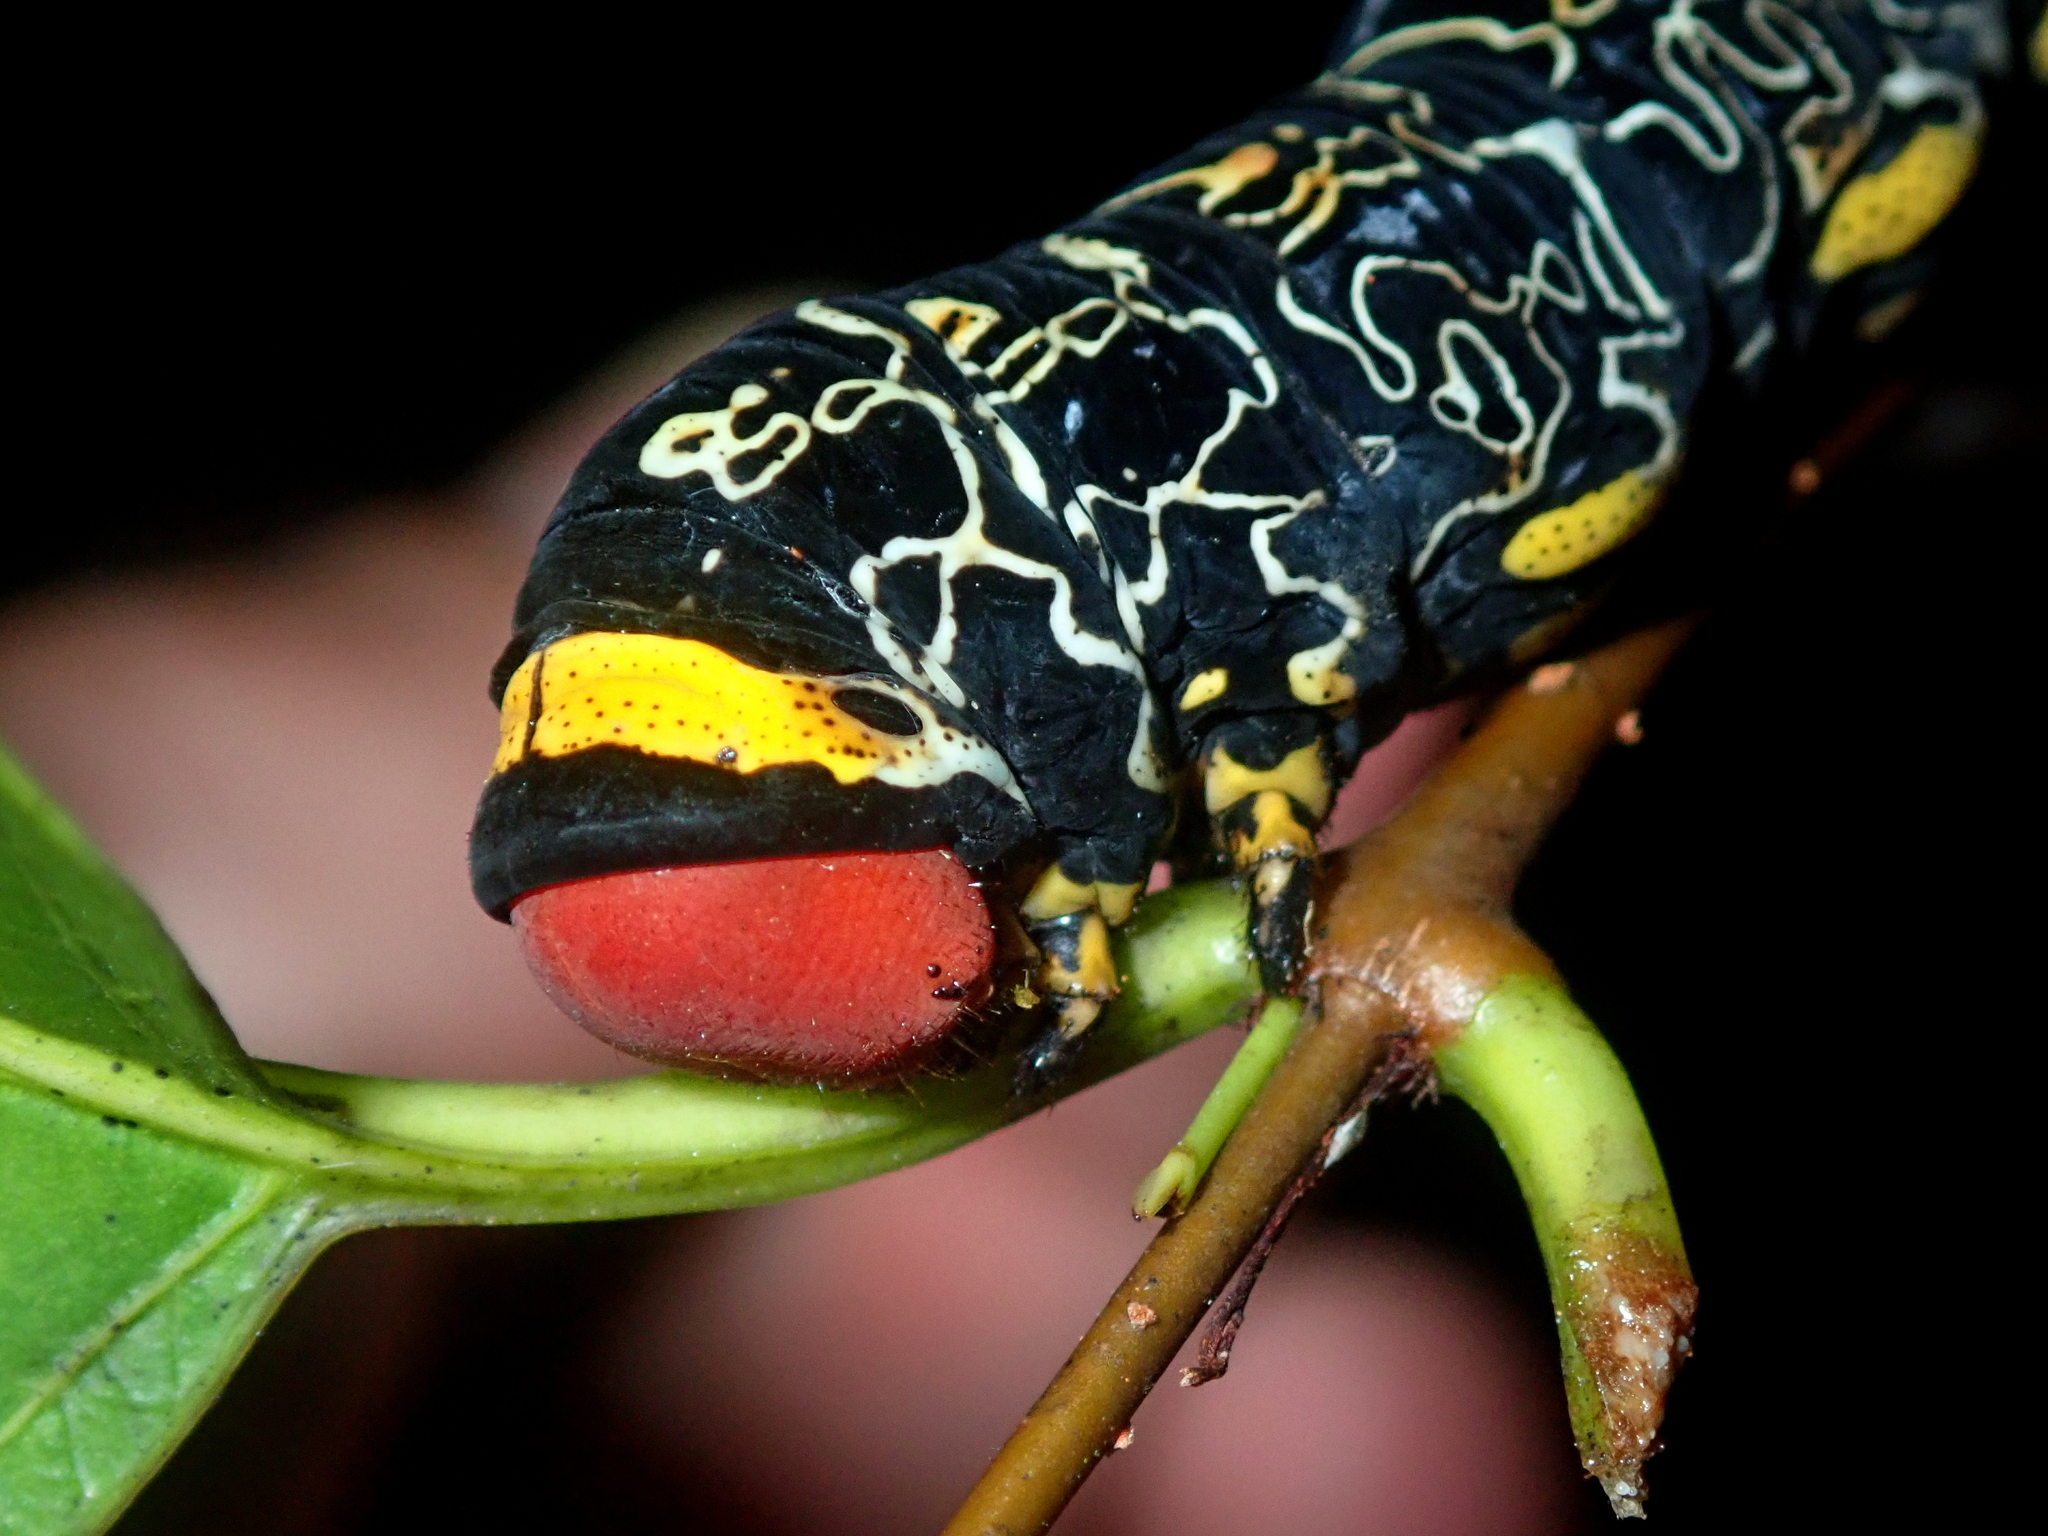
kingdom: Animalia
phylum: Arthropoda
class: Insecta
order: Lepidoptera
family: Sphingidae
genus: Isognathus
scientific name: Isognathus caricae
